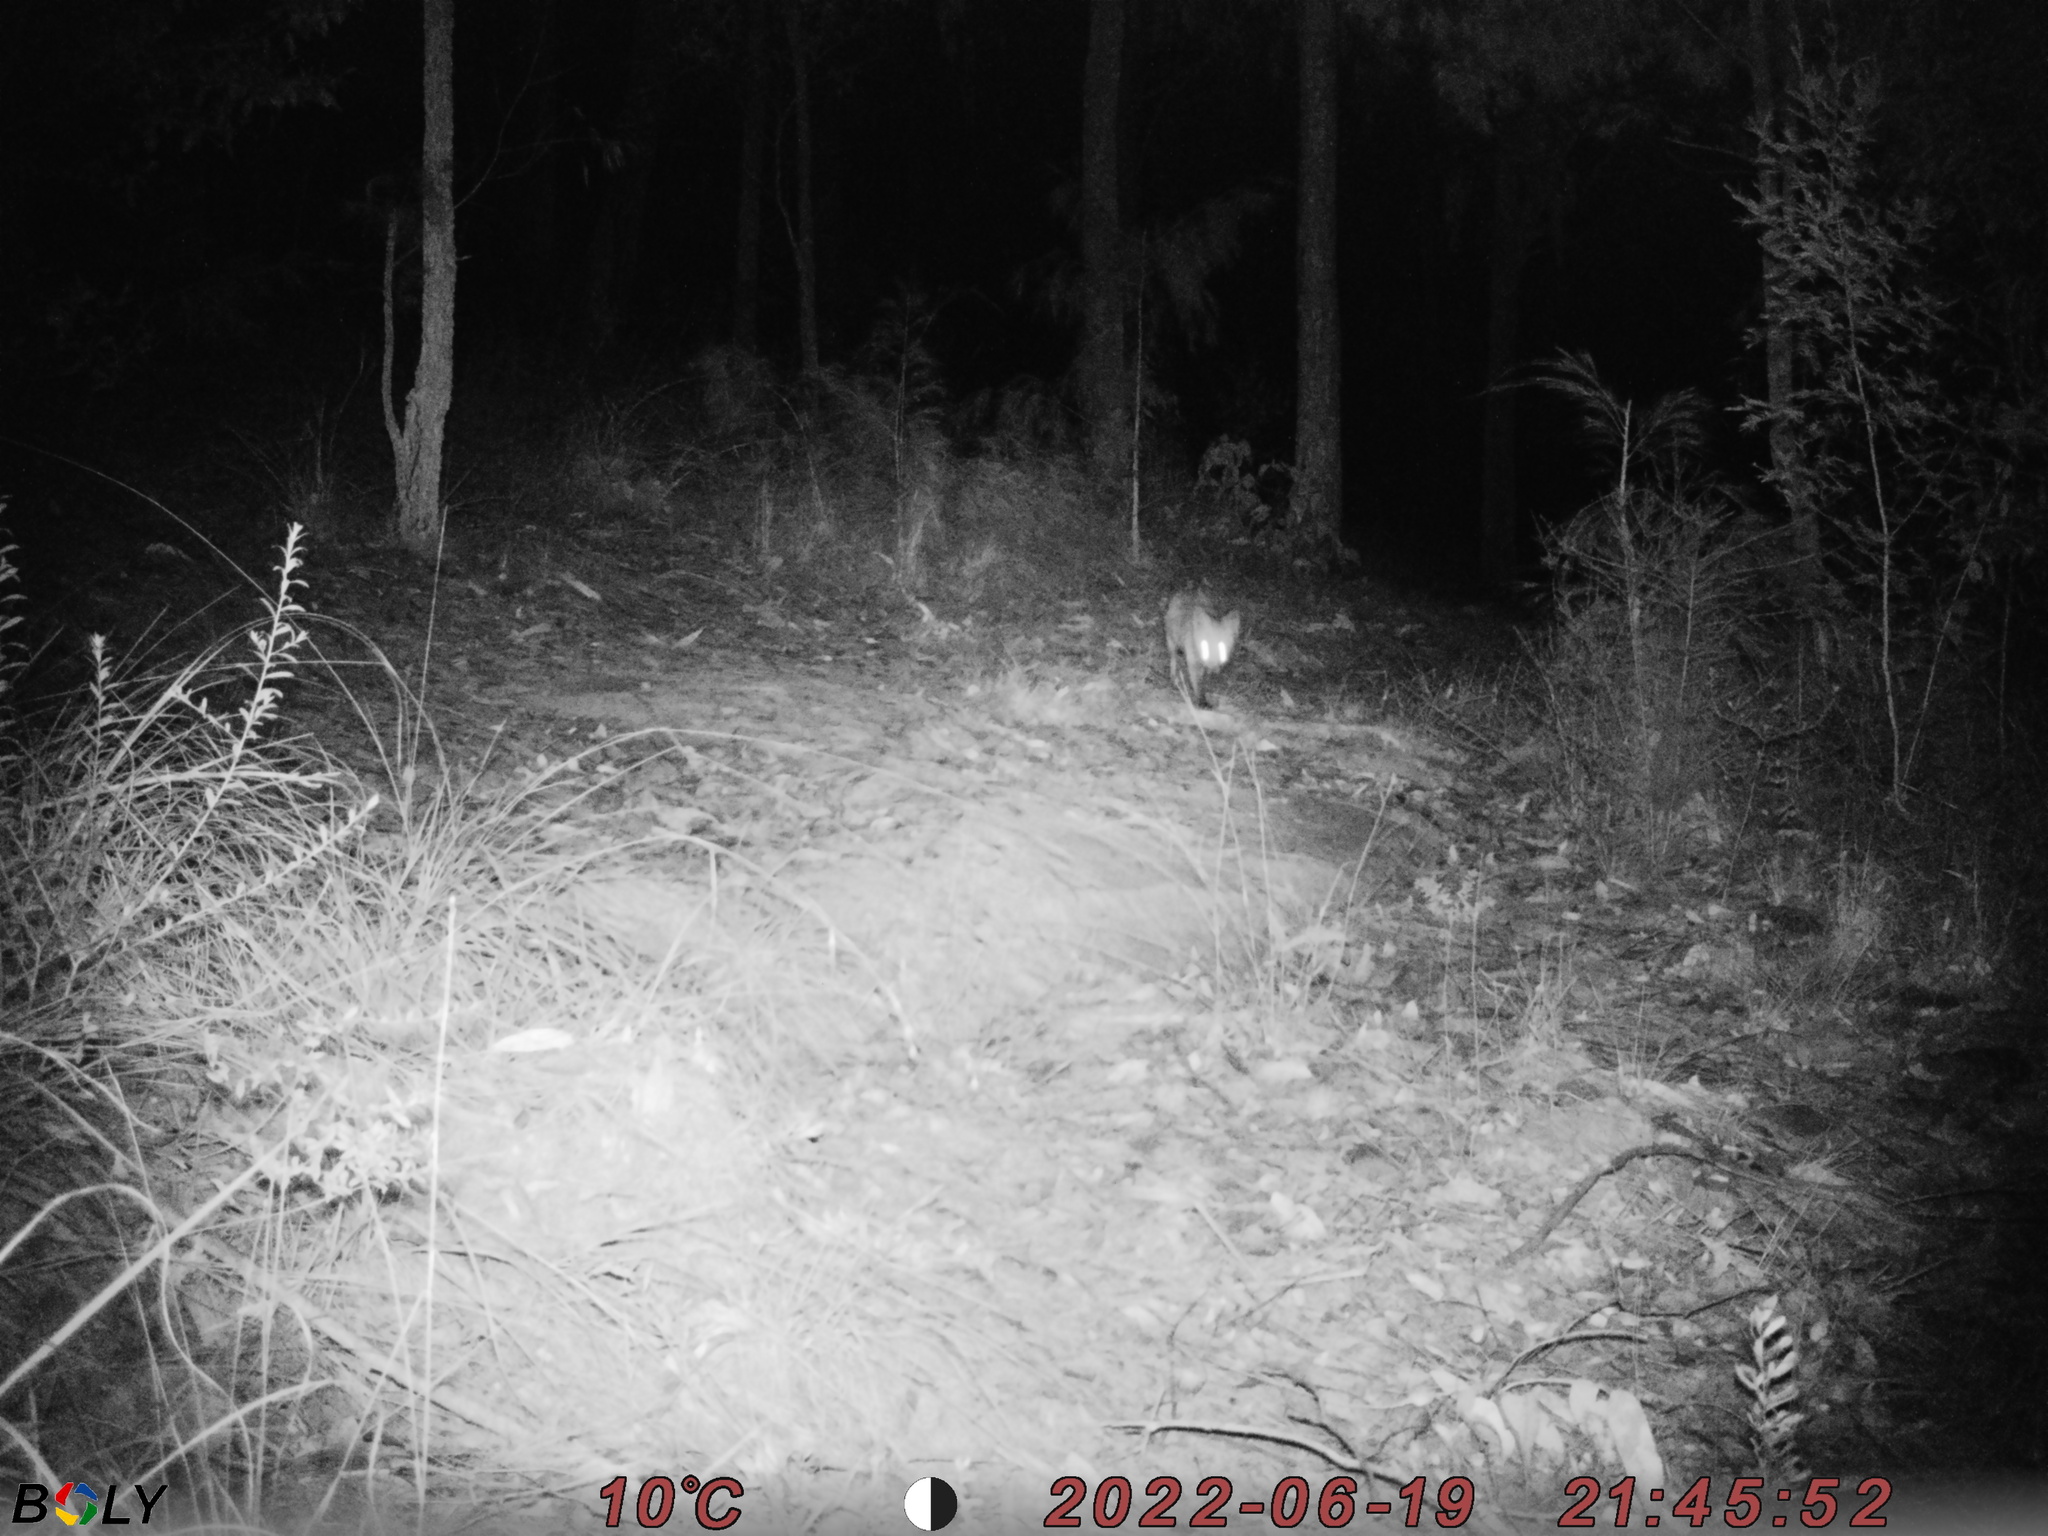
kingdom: Animalia
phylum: Chordata
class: Mammalia
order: Carnivora
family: Canidae
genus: Vulpes
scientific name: Vulpes vulpes
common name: Red fox
